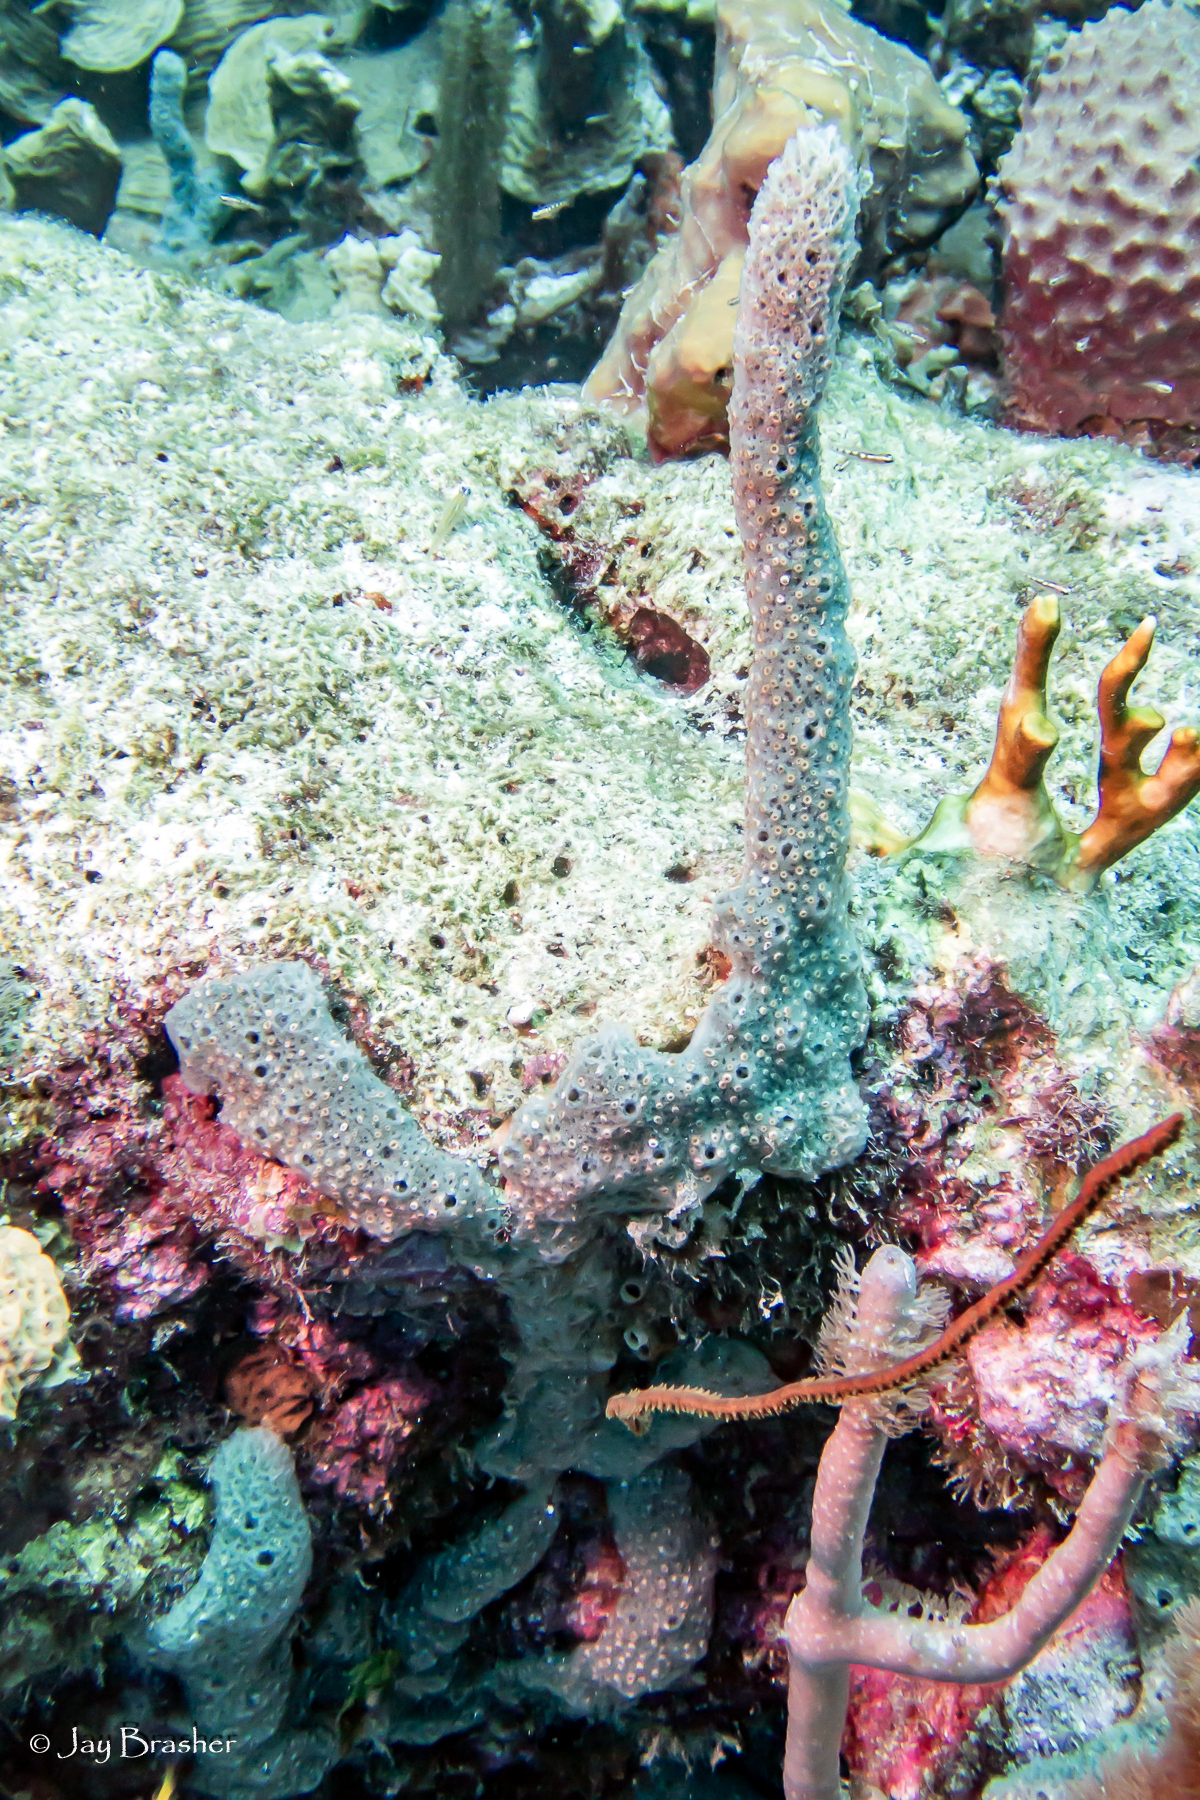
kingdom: Animalia
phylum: Porifera
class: Demospongiae
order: Haplosclerida
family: Niphatidae
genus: Niphates
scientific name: Niphates erecta
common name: Lavender rope sponge
